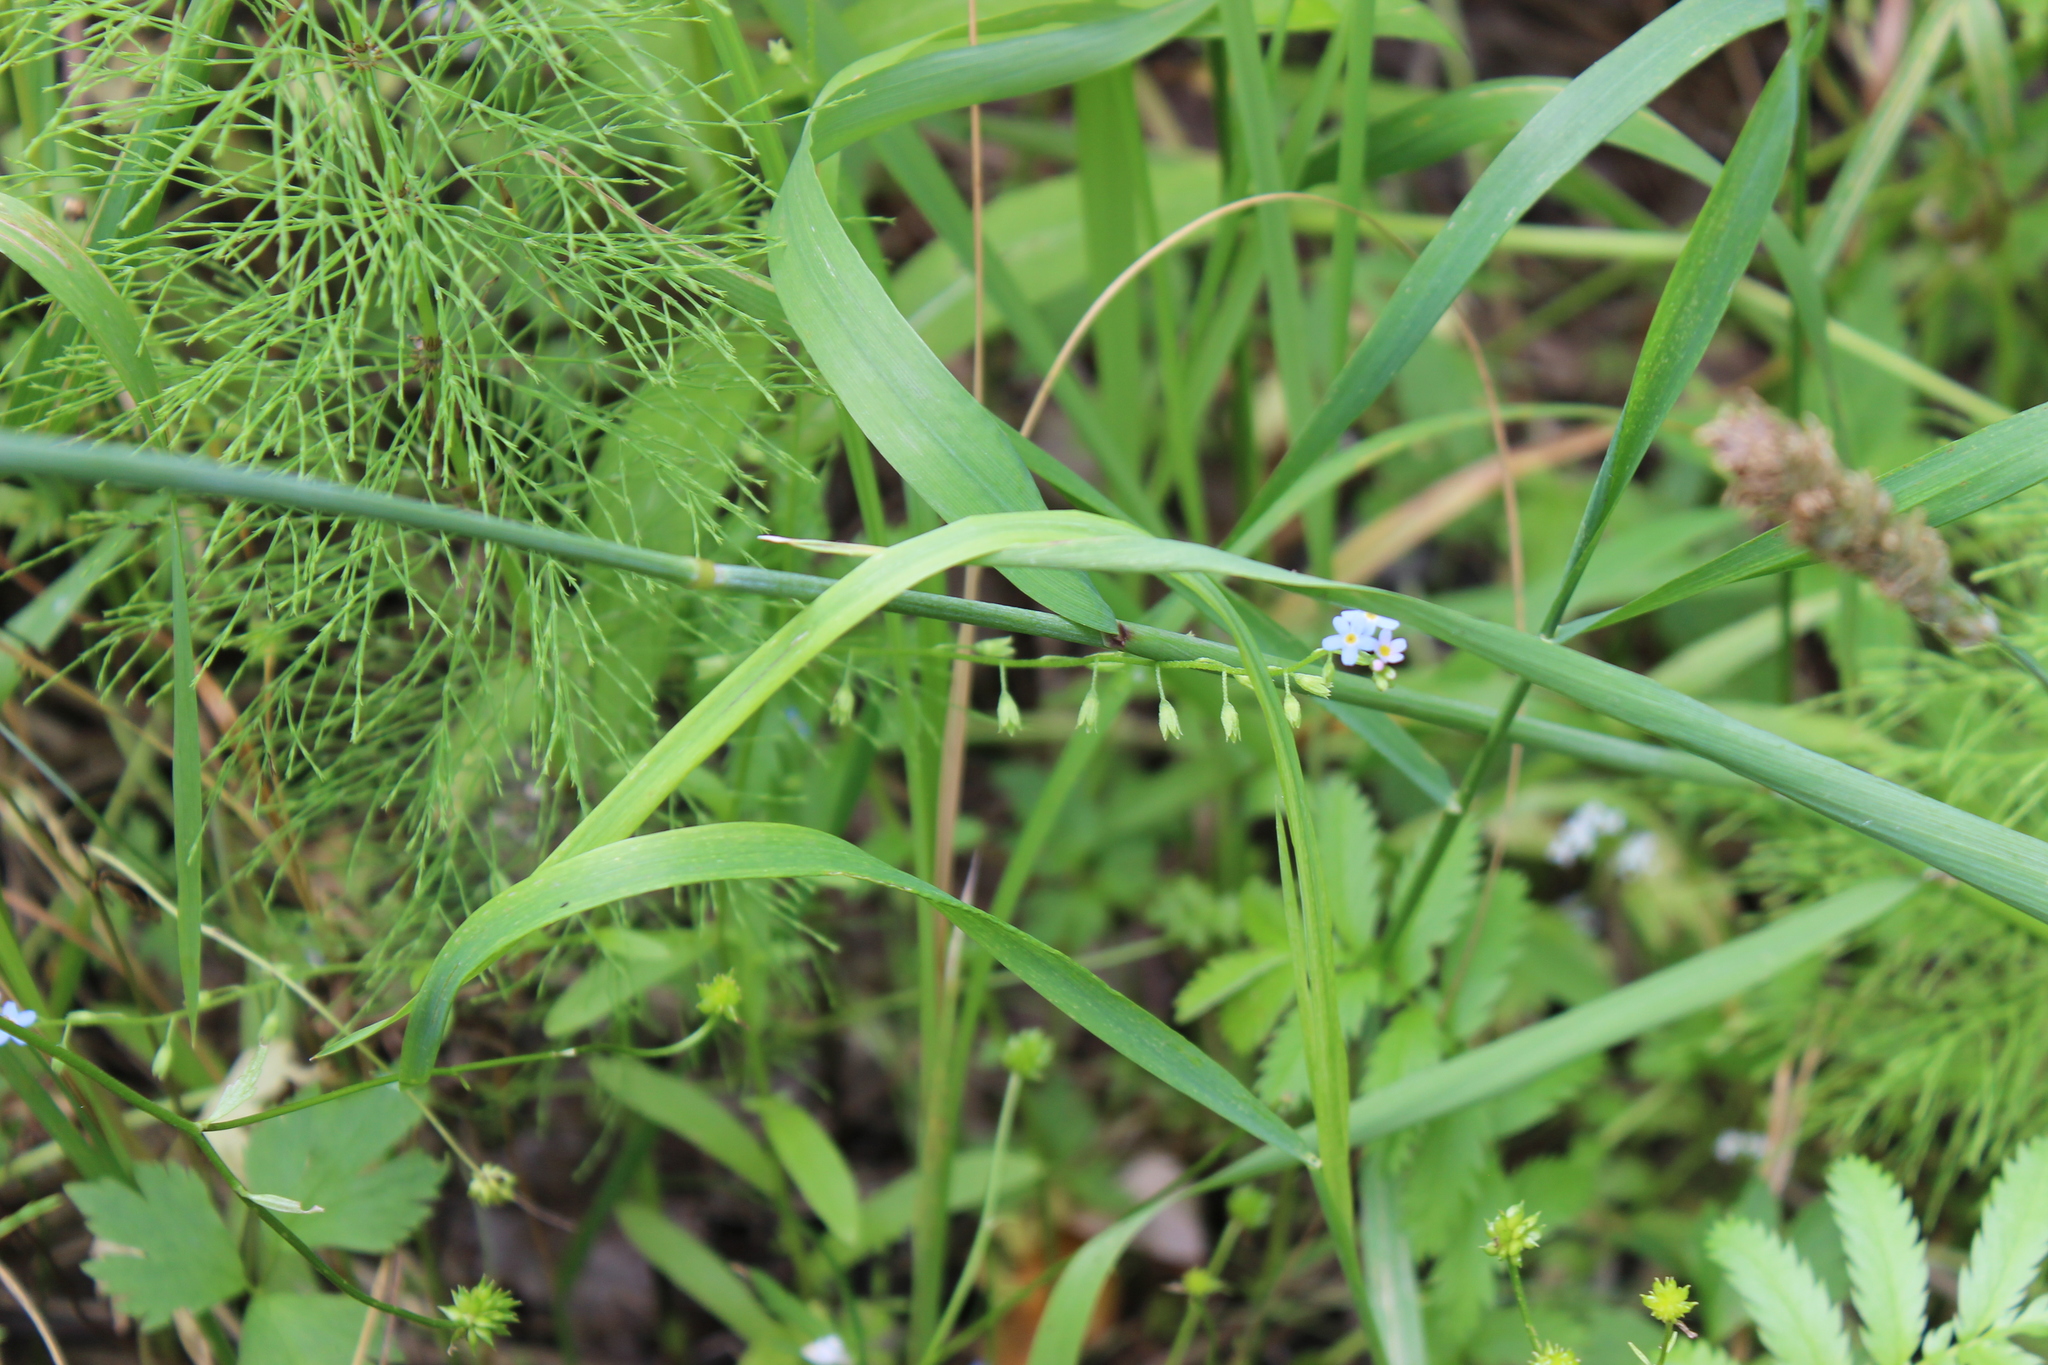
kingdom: Plantae
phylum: Tracheophyta
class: Magnoliopsida
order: Boraginales
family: Boraginaceae
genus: Myosotis
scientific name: Myosotis scorpioides
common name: Water forget-me-not
